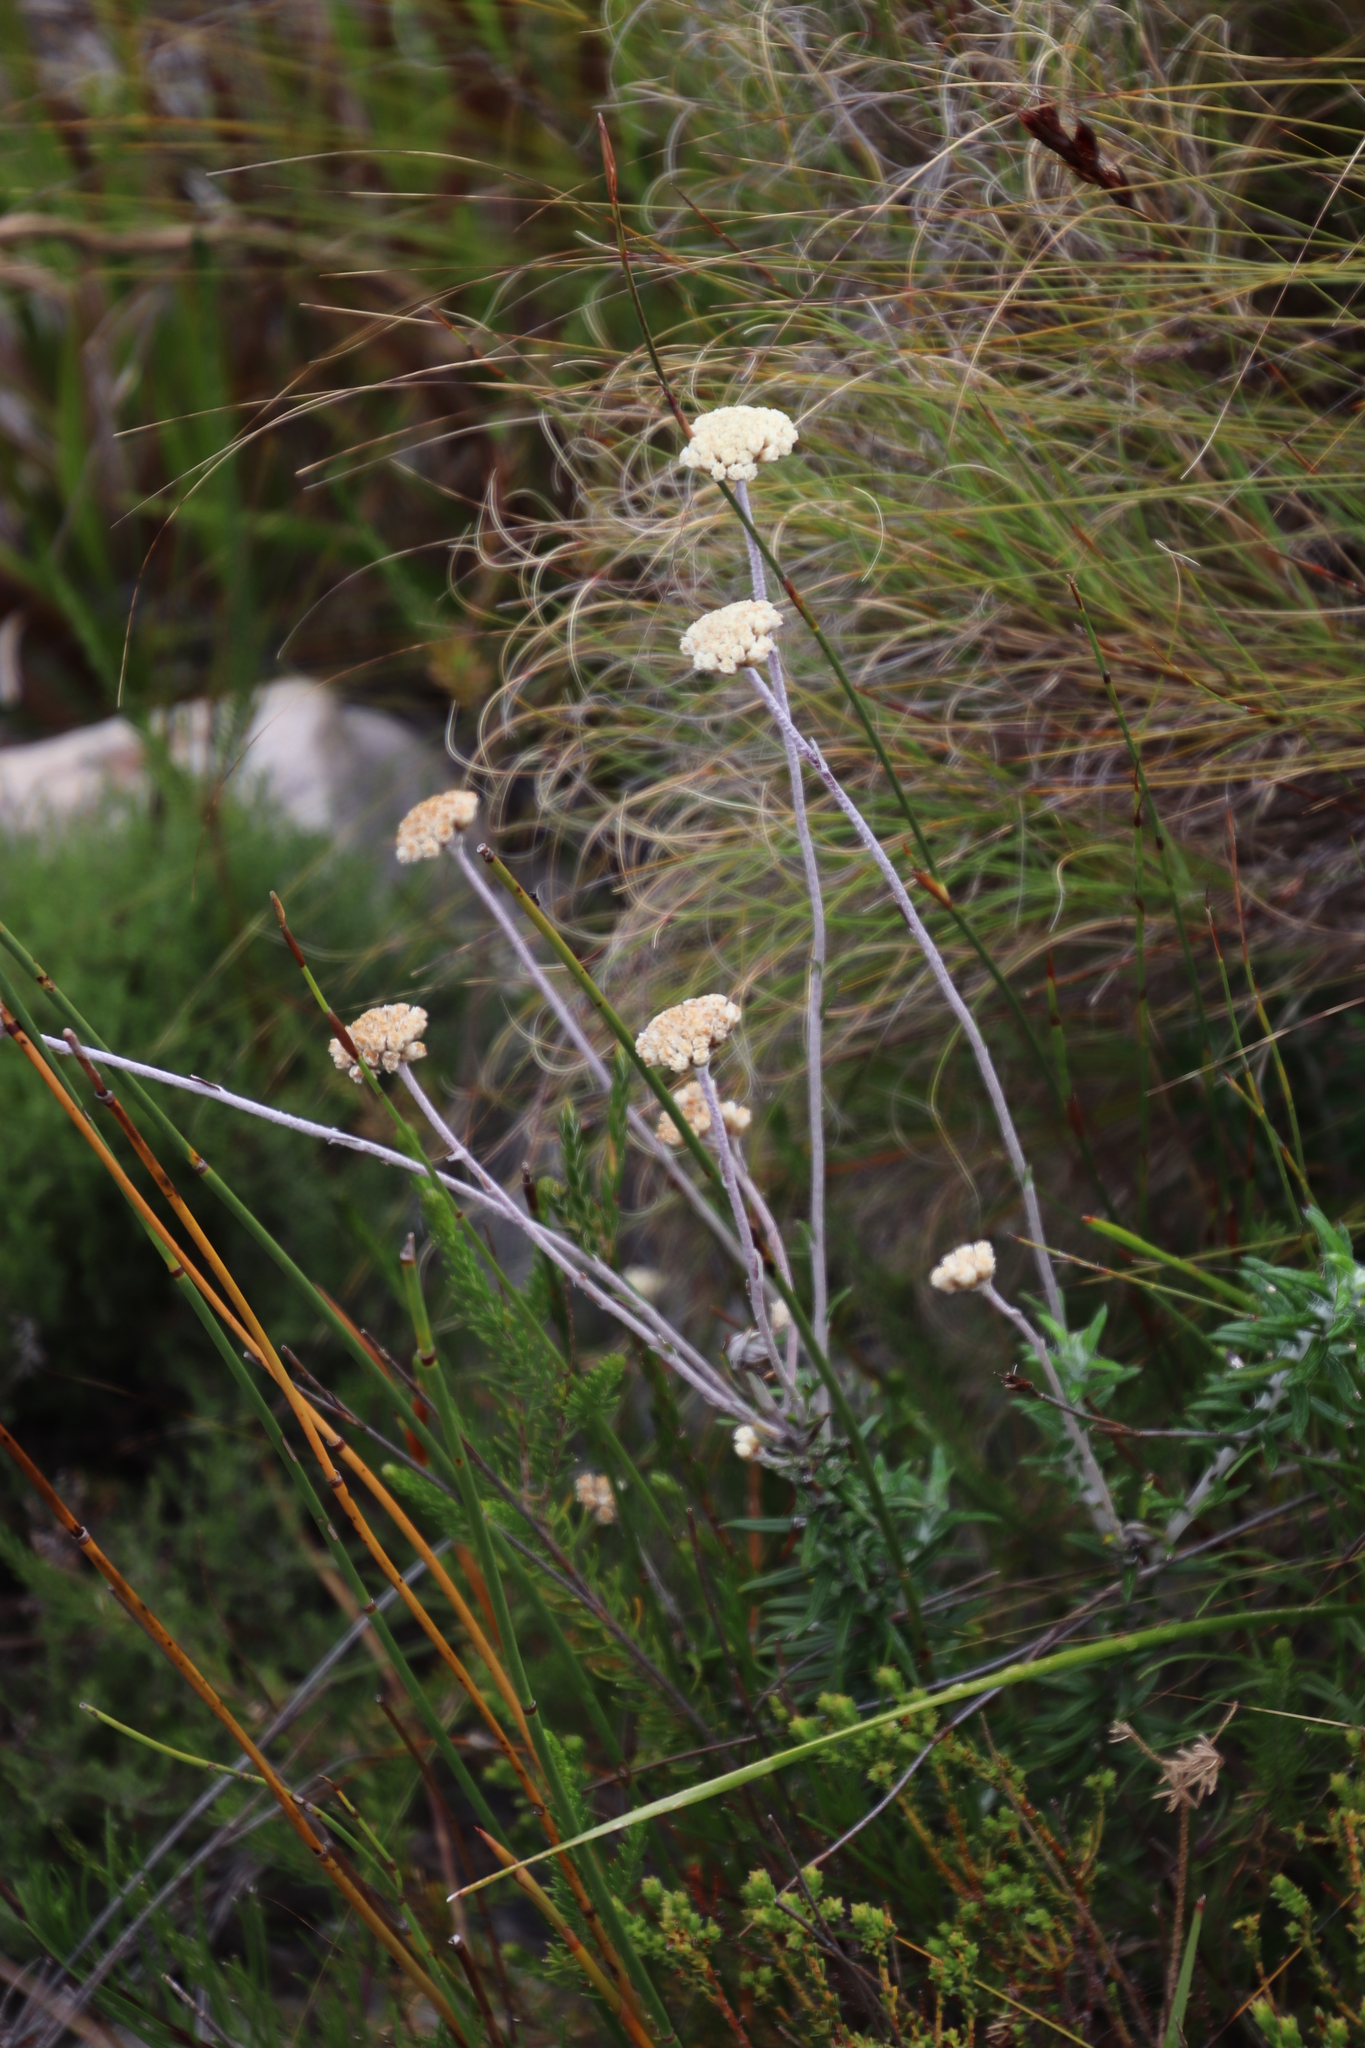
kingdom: Plantae
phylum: Tracheophyta
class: Magnoliopsida
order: Asterales
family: Asteraceae
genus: Anaxeton
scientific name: Anaxeton laeve
